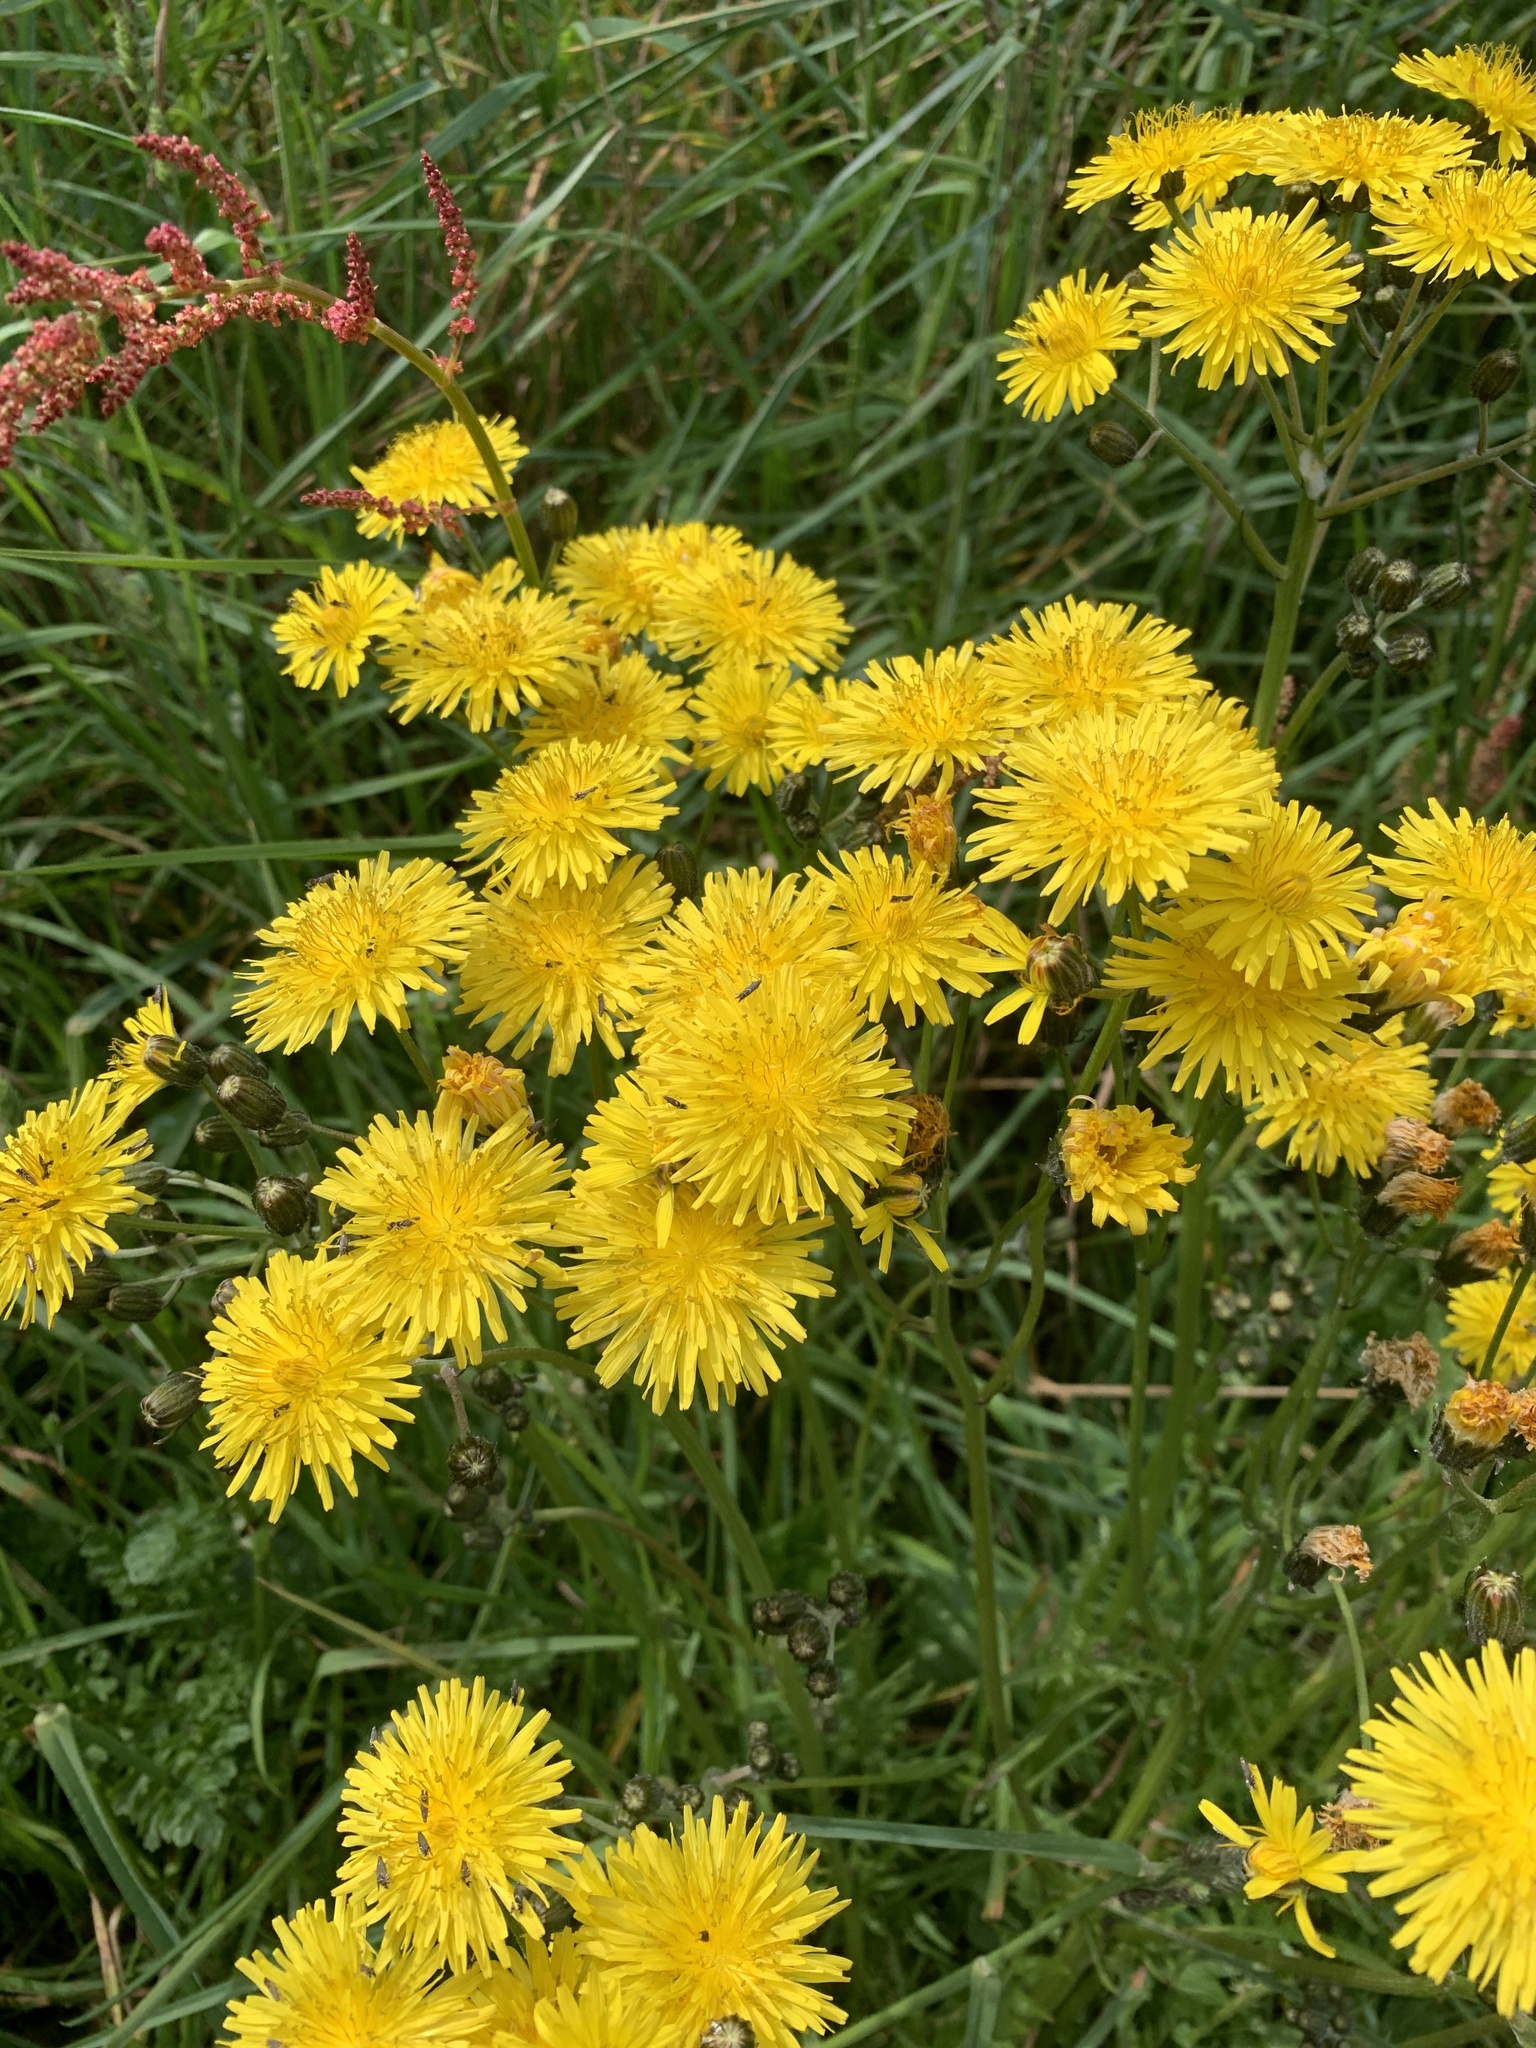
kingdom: Plantae
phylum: Tracheophyta
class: Magnoliopsida
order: Asterales
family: Asteraceae
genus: Crepis
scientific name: Crepis vesicaria
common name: Beaked hawksbeard
